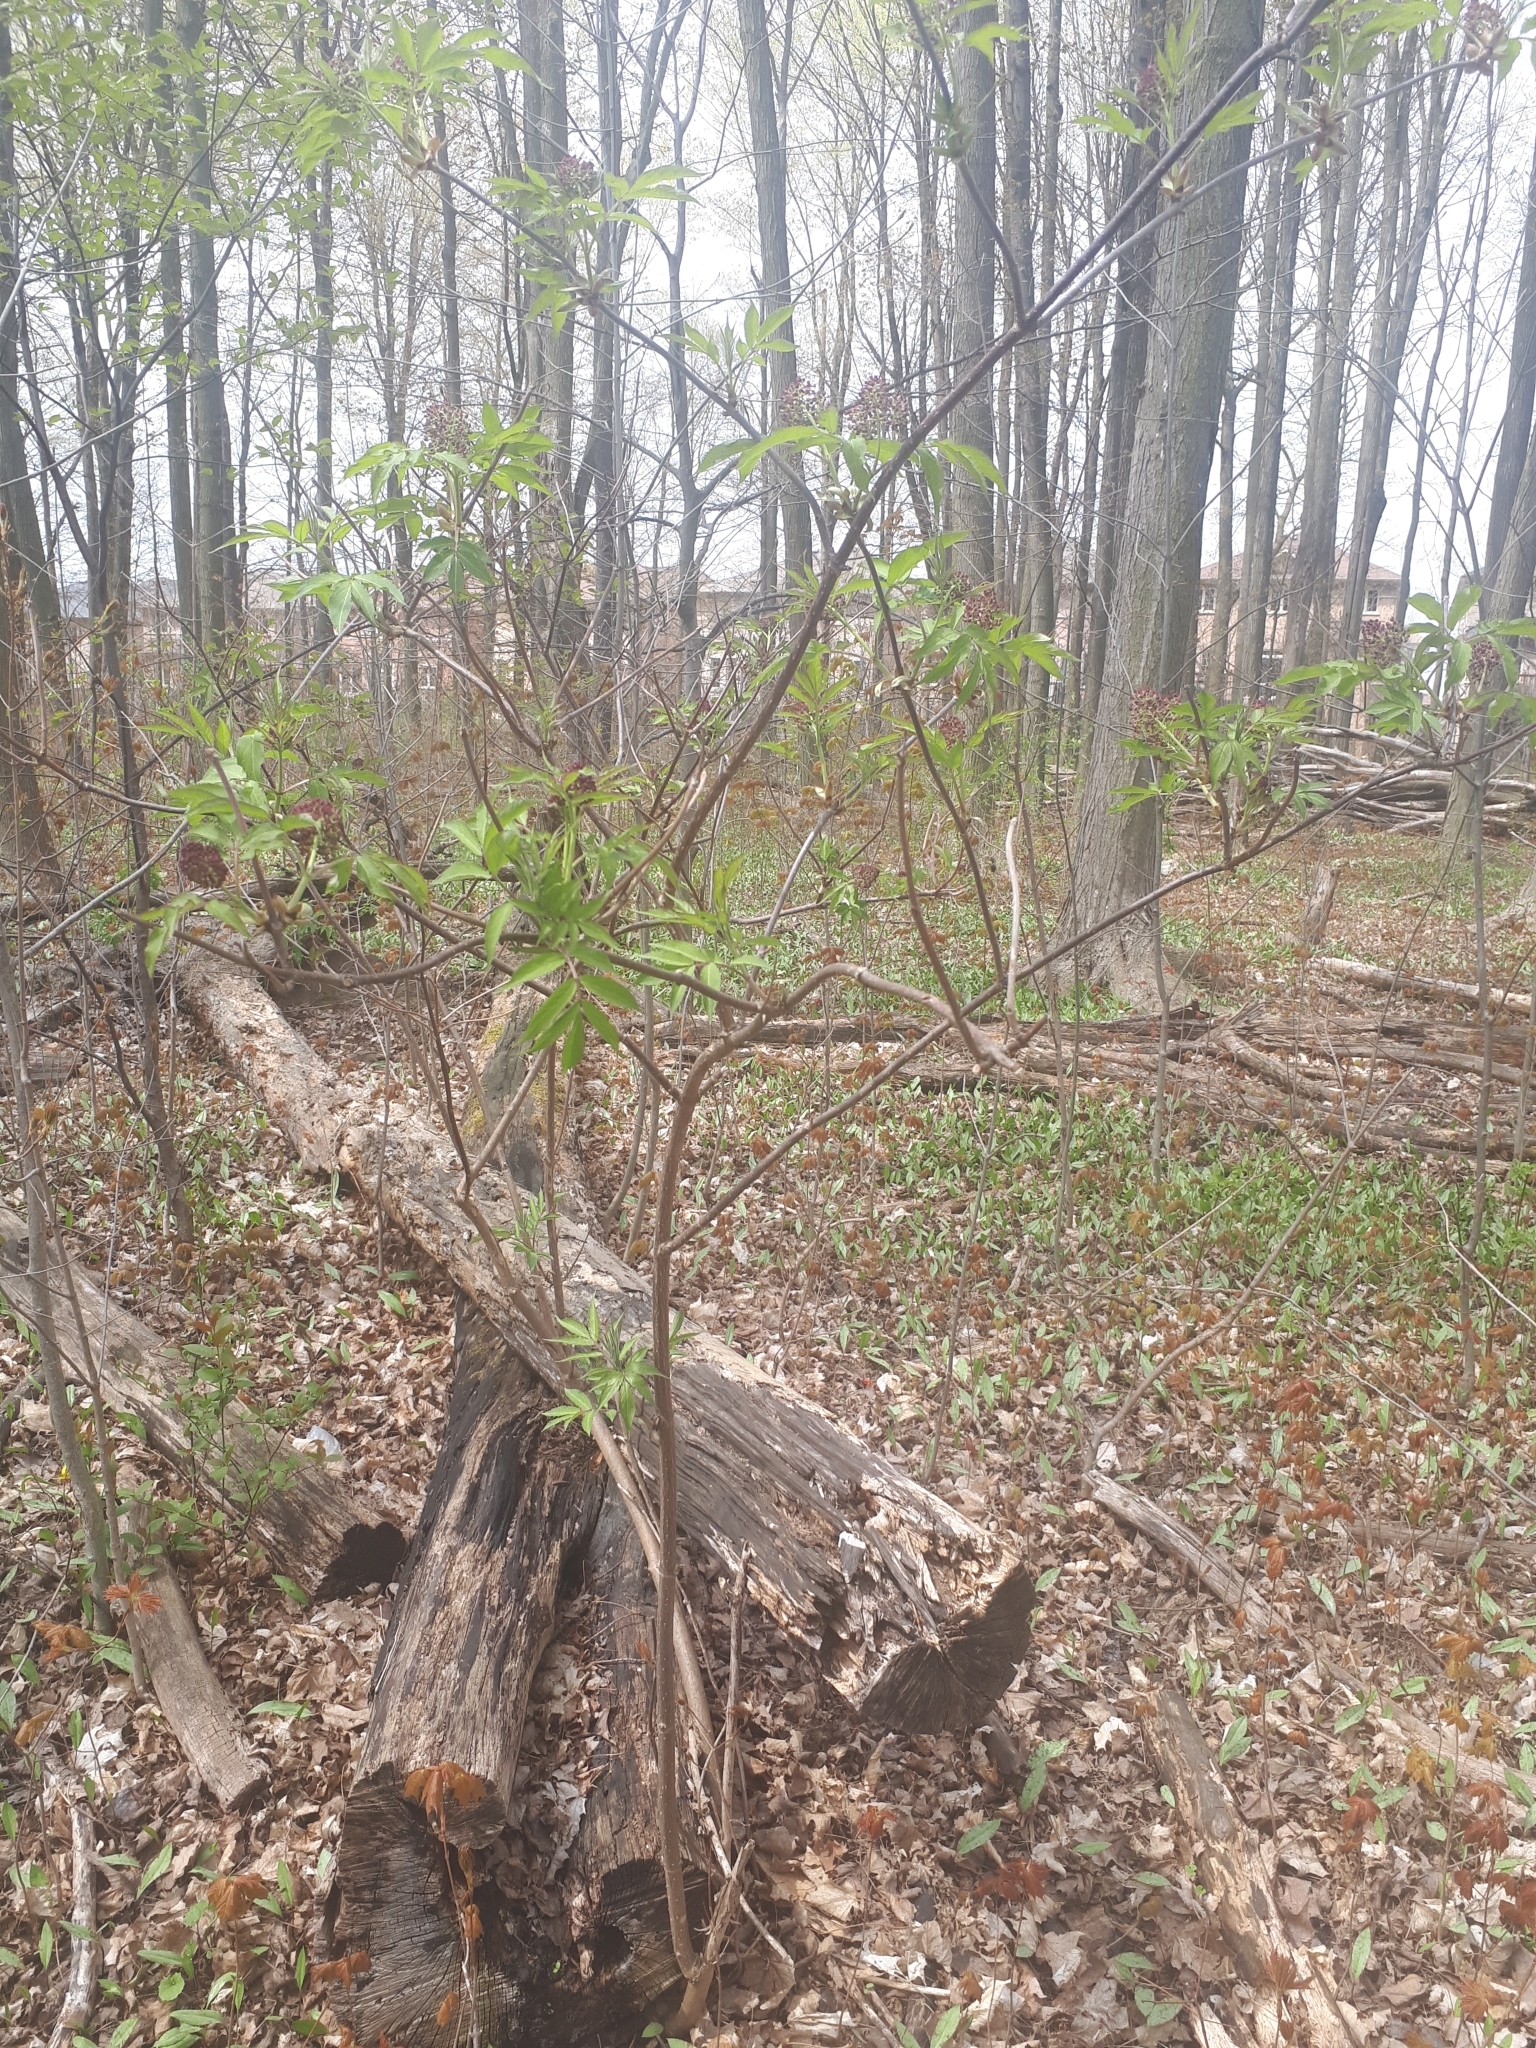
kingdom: Plantae
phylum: Tracheophyta
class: Magnoliopsida
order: Dipsacales
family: Viburnaceae
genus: Sambucus
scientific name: Sambucus racemosa
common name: Red-berried elder
